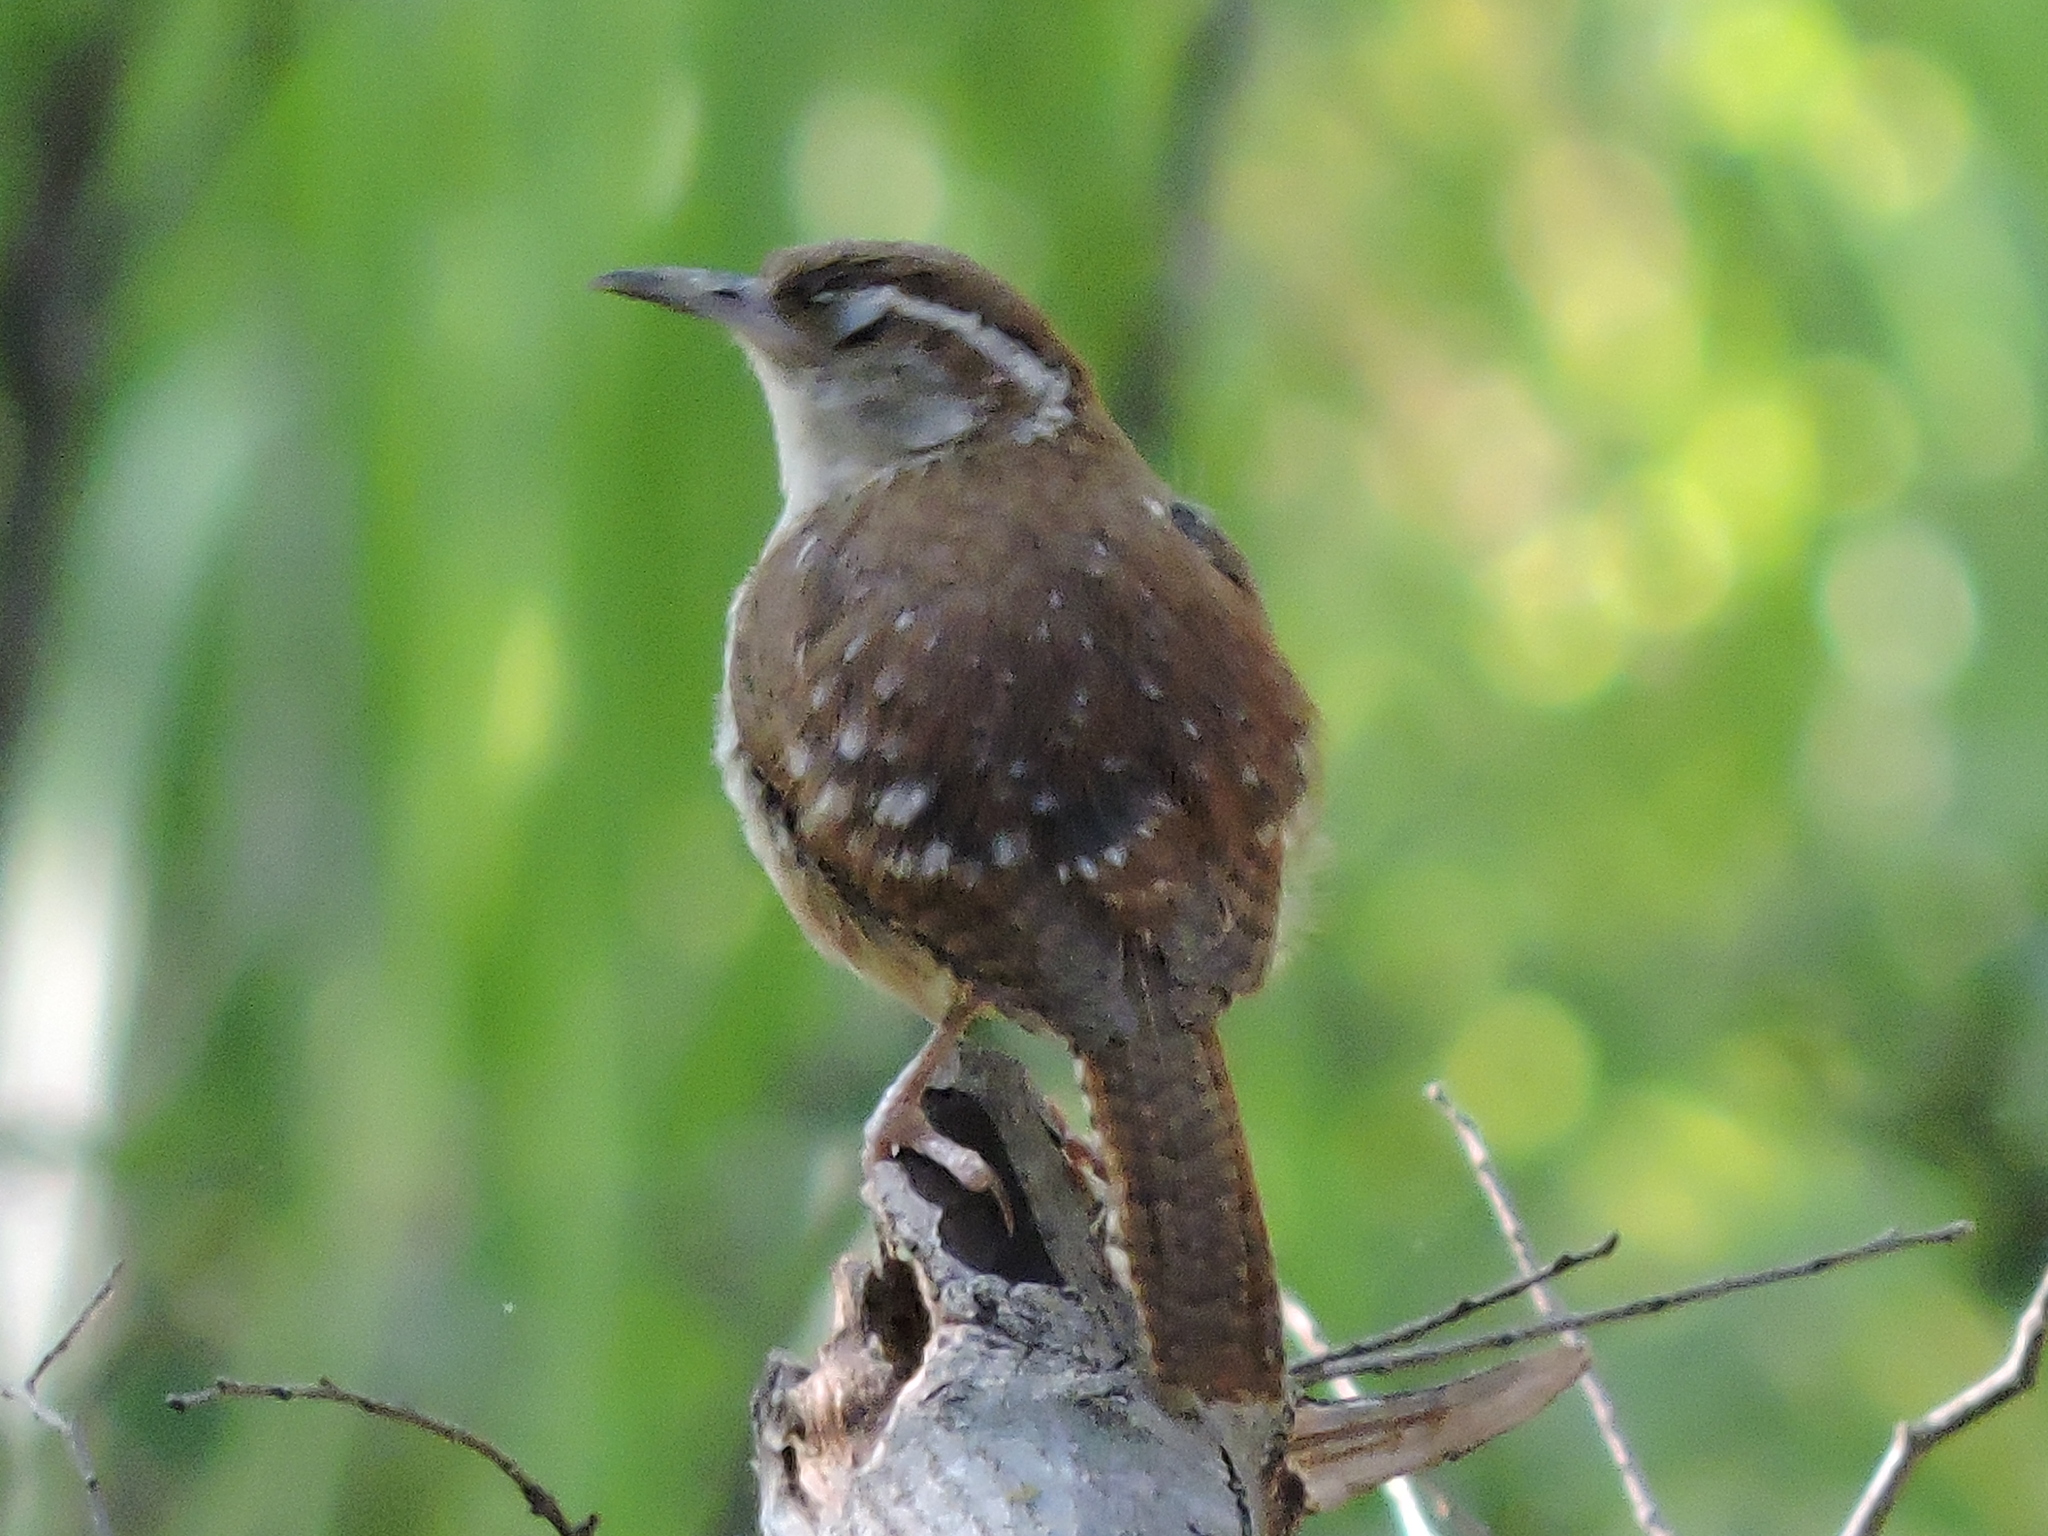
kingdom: Animalia
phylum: Chordata
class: Aves
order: Passeriformes
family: Troglodytidae
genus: Thryothorus
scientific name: Thryothorus ludovicianus
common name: Carolina wren
